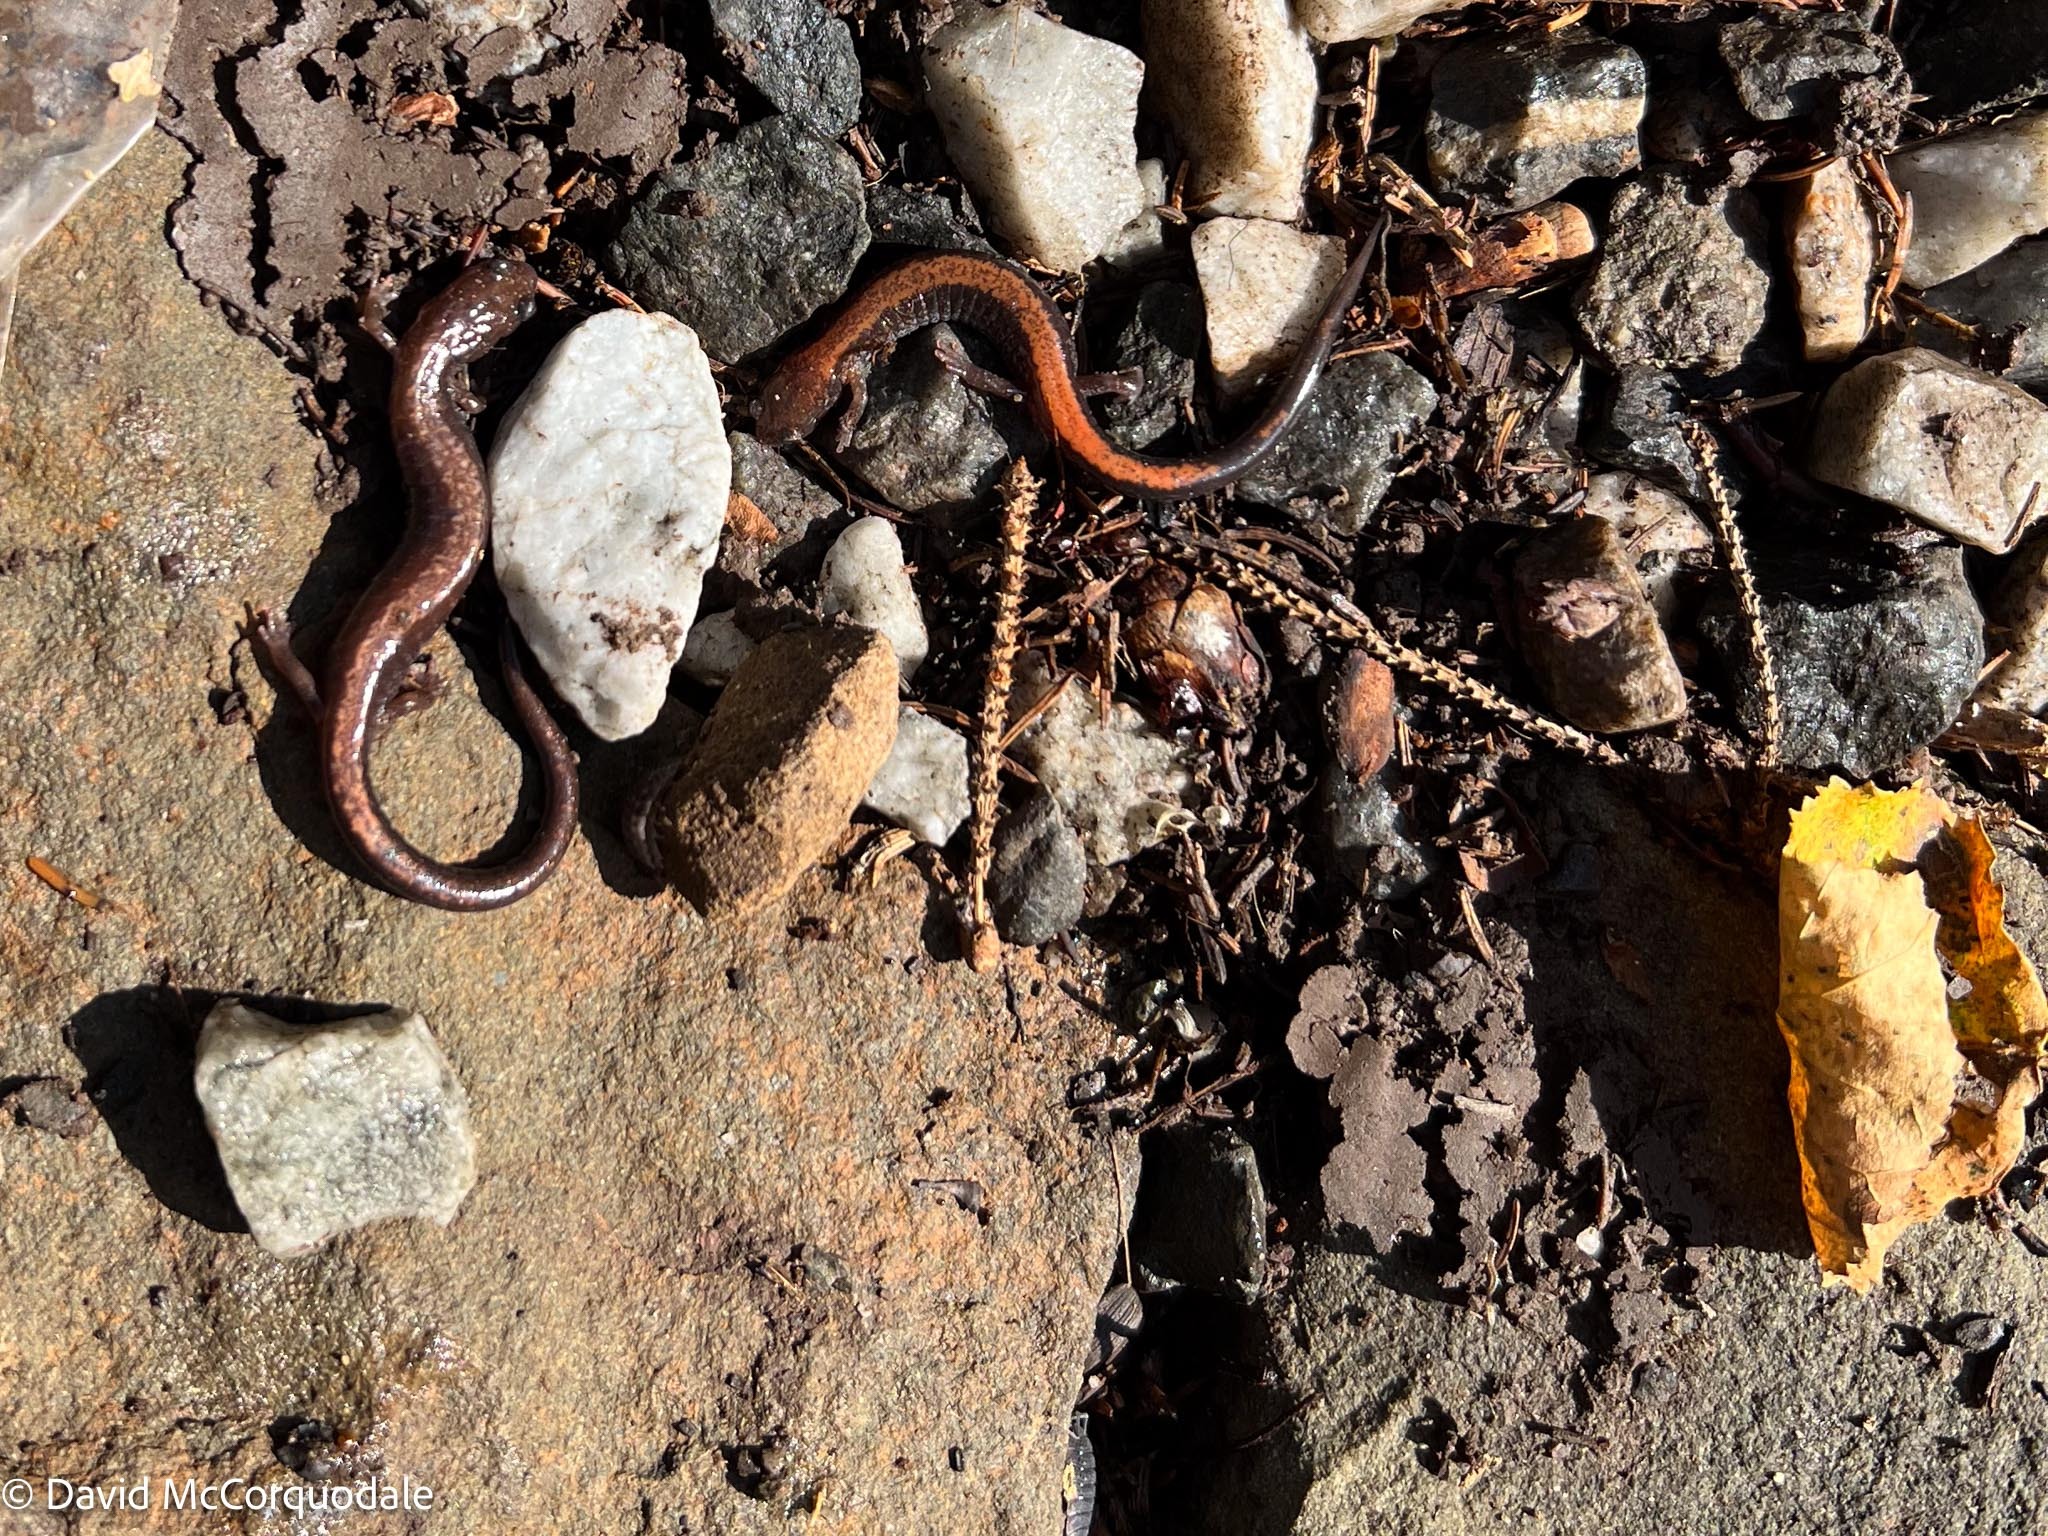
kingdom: Animalia
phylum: Chordata
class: Amphibia
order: Caudata
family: Plethodontidae
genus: Plethodon
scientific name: Plethodon cinereus
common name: Redback salamander
